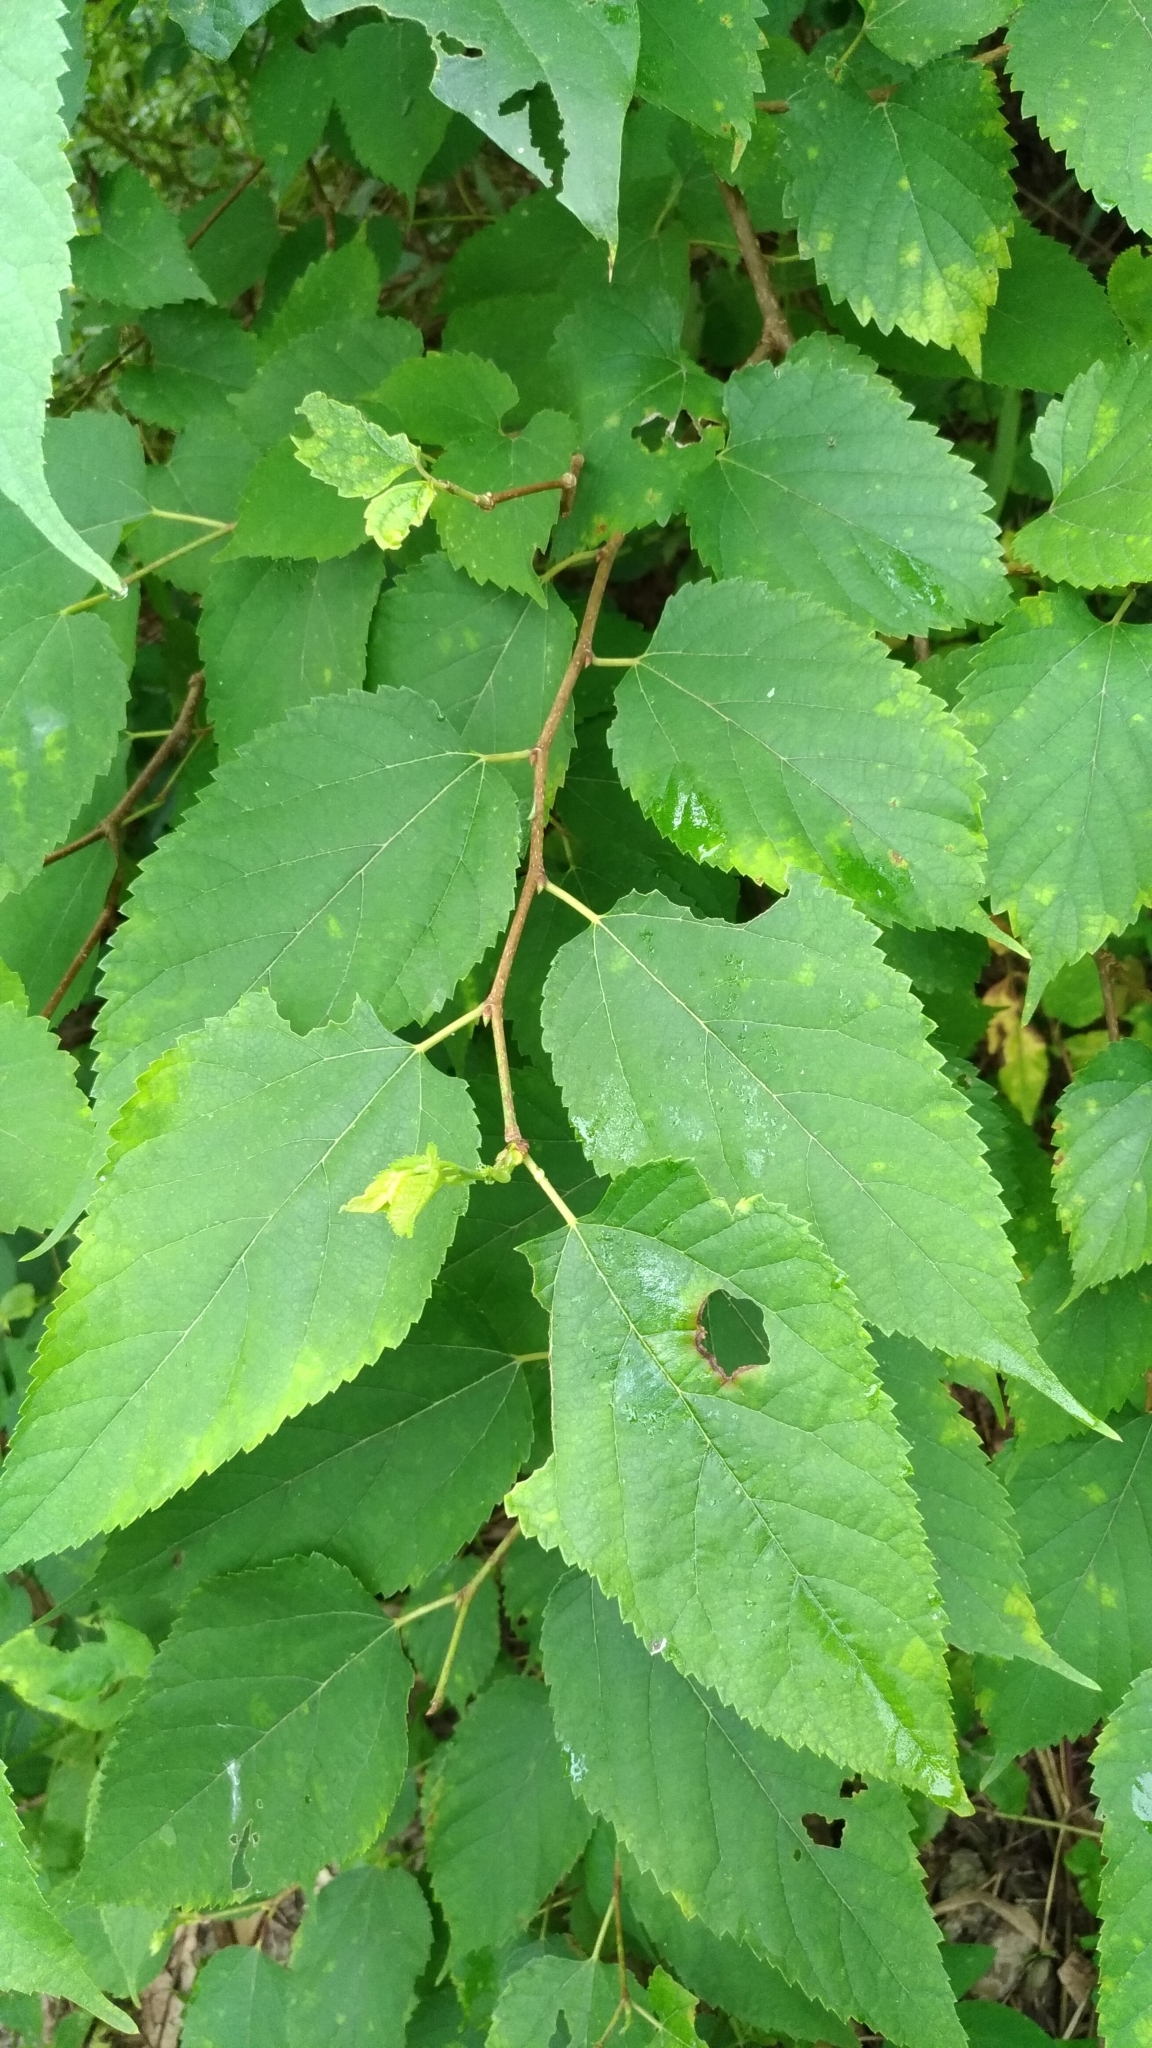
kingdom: Plantae
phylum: Tracheophyta
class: Magnoliopsida
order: Rosales
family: Moraceae
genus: Morus
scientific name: Morus indica
